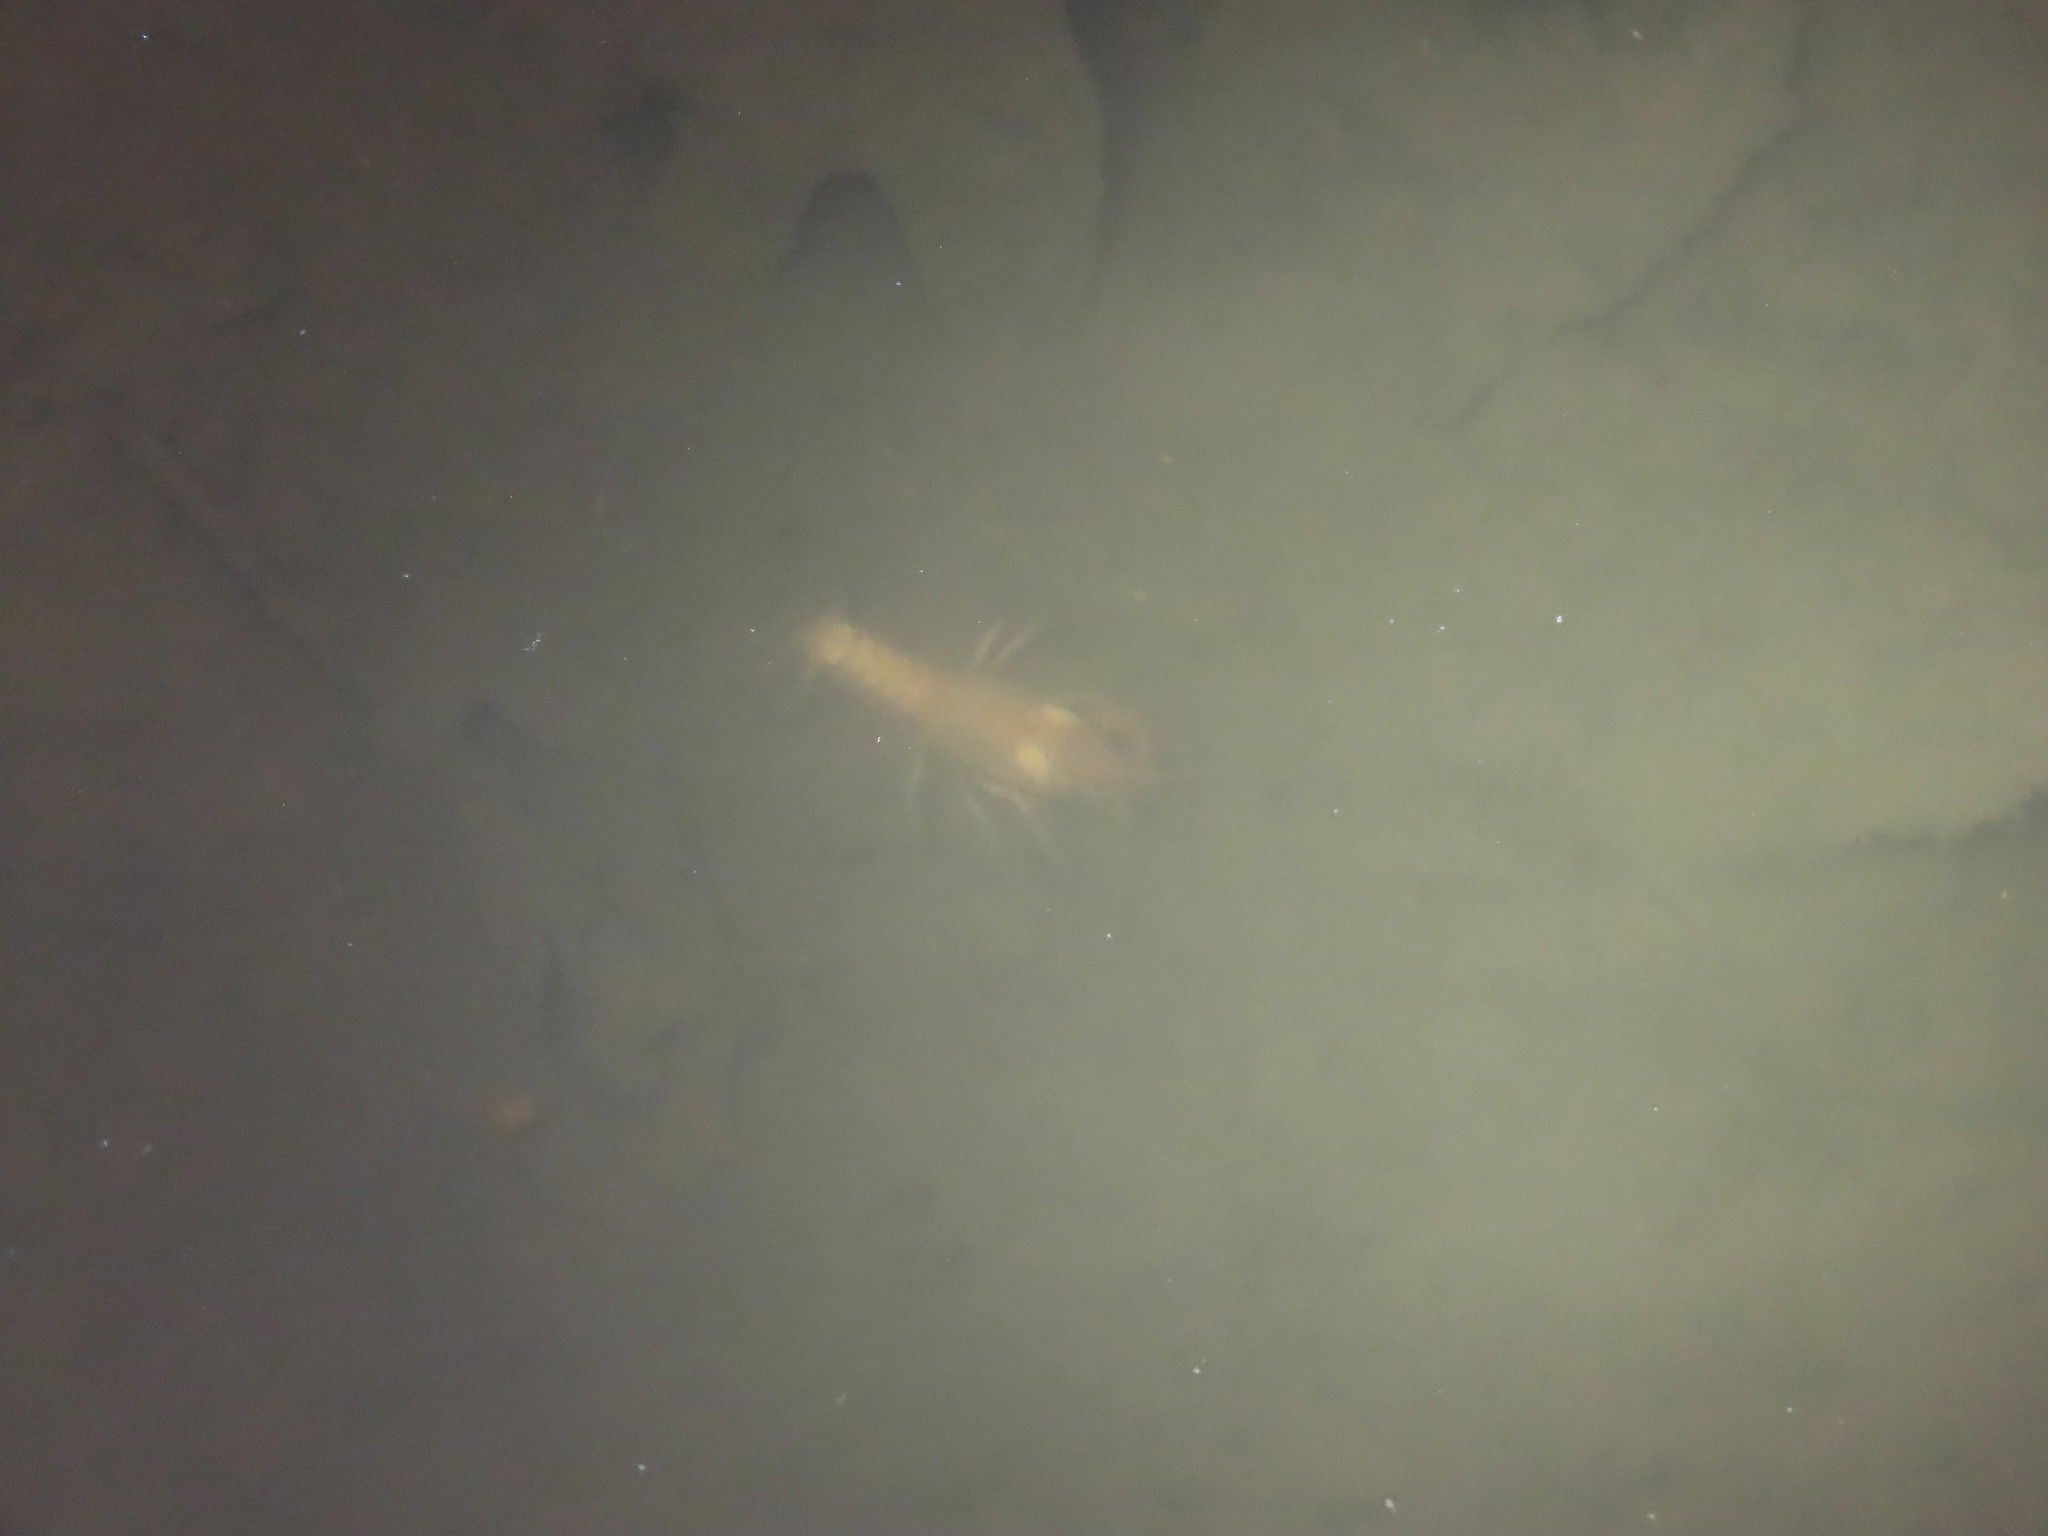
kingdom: Animalia
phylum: Arthropoda
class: Malacostraca
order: Decapoda
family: Cambaridae
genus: Cambarus
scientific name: Cambarus dubius
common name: Upland burrowing crayfish
